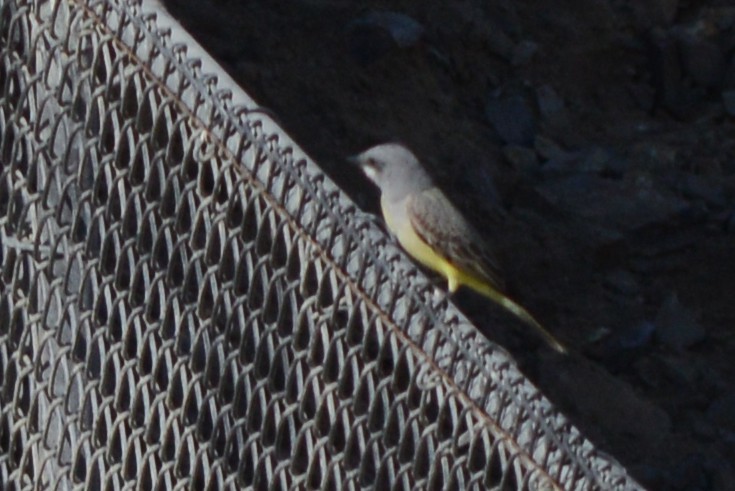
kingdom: Animalia
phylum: Chordata
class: Aves
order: Passeriformes
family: Tyrannidae
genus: Tyrannus
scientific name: Tyrannus vociferans
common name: Cassin's kingbird
